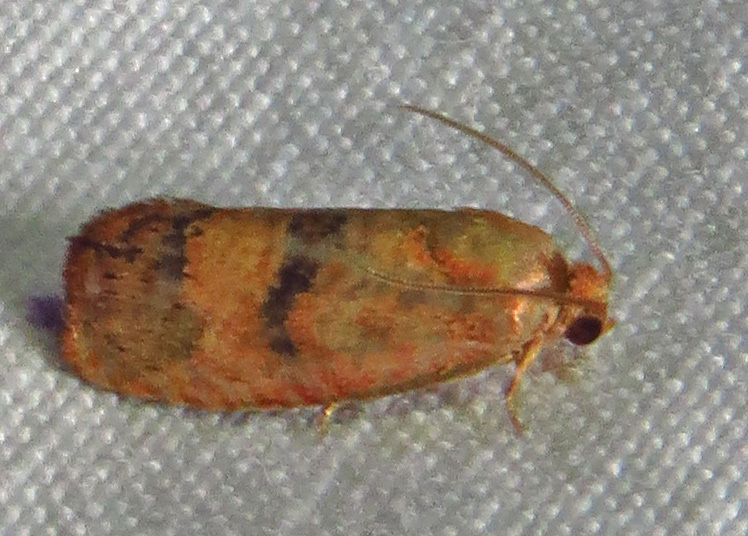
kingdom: Animalia
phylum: Arthropoda
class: Insecta
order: Lepidoptera
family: Tortricidae
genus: Cydia
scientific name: Cydia latiferreana
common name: Filbertworm moth
